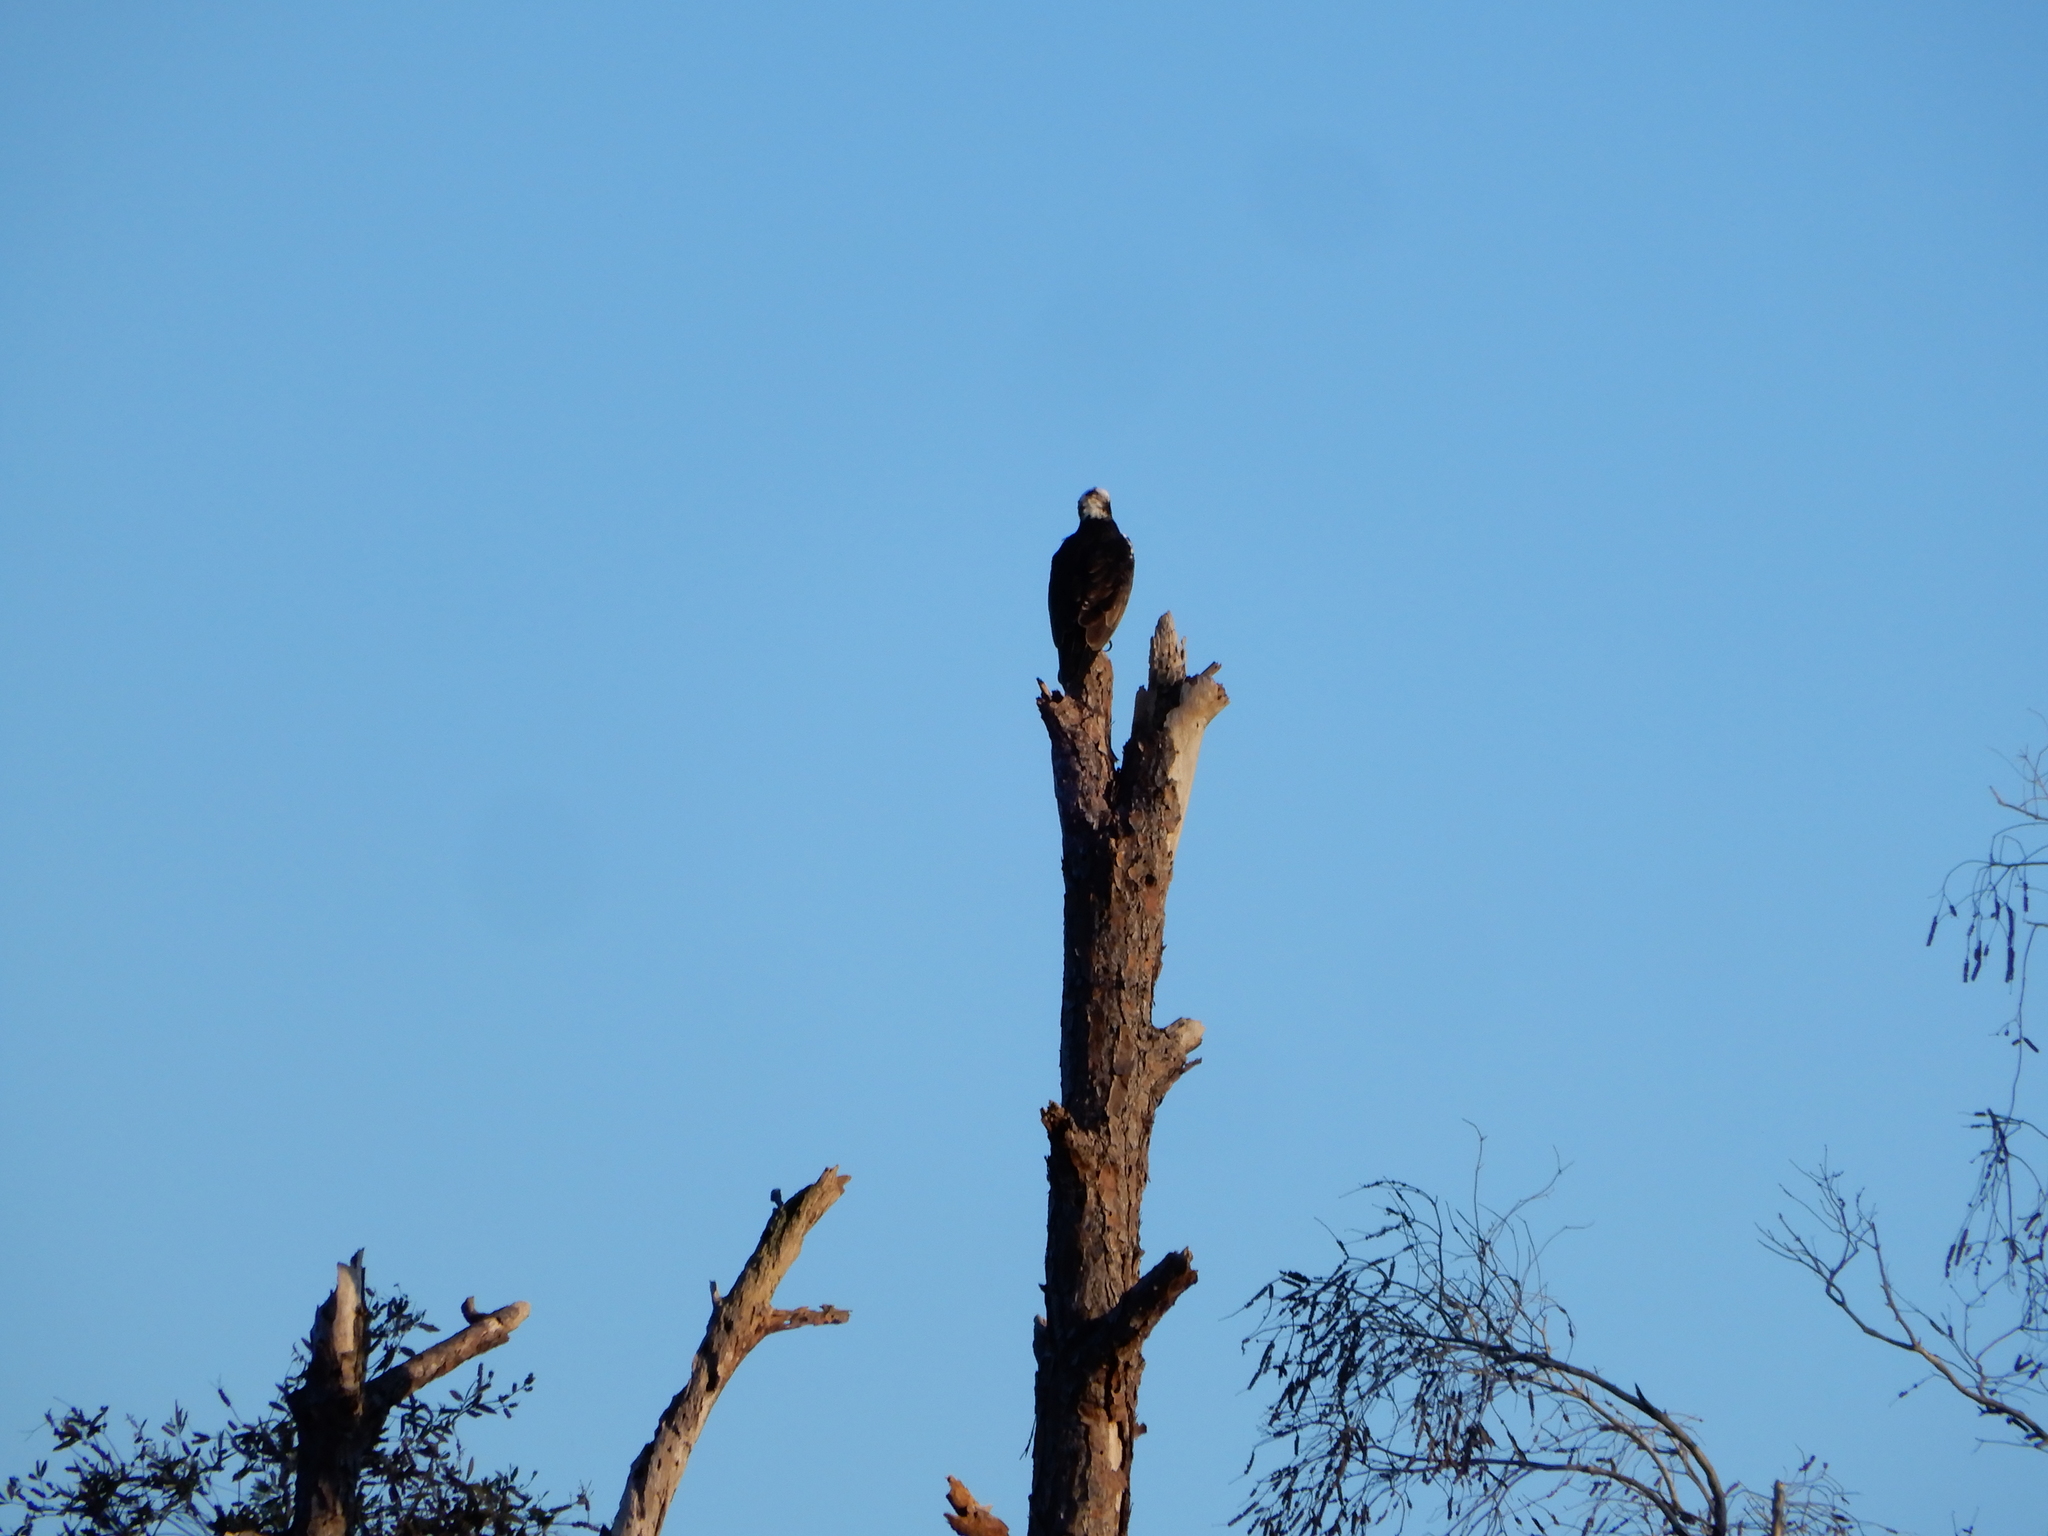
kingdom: Animalia
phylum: Chordata
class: Aves
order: Accipitriformes
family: Pandionidae
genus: Pandion
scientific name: Pandion haliaetus
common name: Osprey
